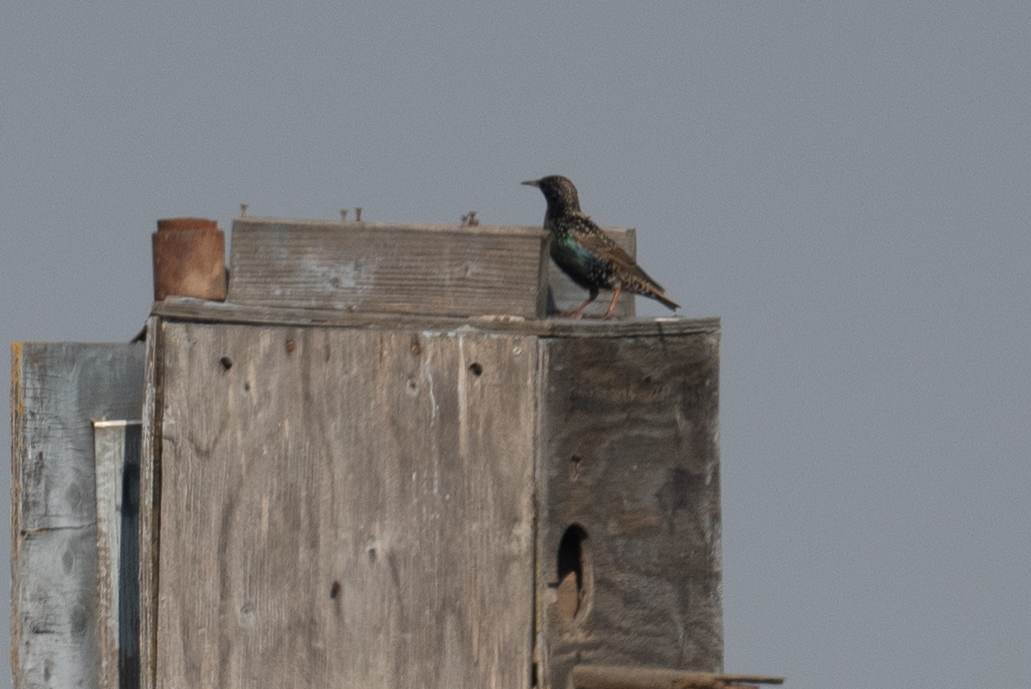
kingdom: Animalia
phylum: Chordata
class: Aves
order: Passeriformes
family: Sturnidae
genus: Sturnus
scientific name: Sturnus vulgaris
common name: Common starling
